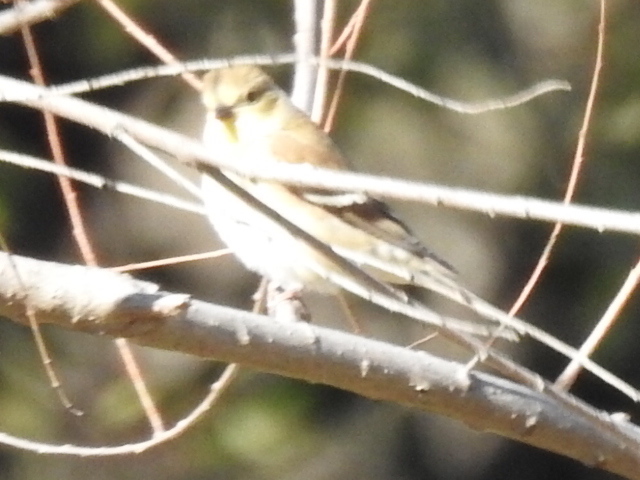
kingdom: Animalia
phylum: Chordata
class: Aves
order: Passeriformes
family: Fringillidae
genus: Spinus
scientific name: Spinus tristis
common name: American goldfinch
